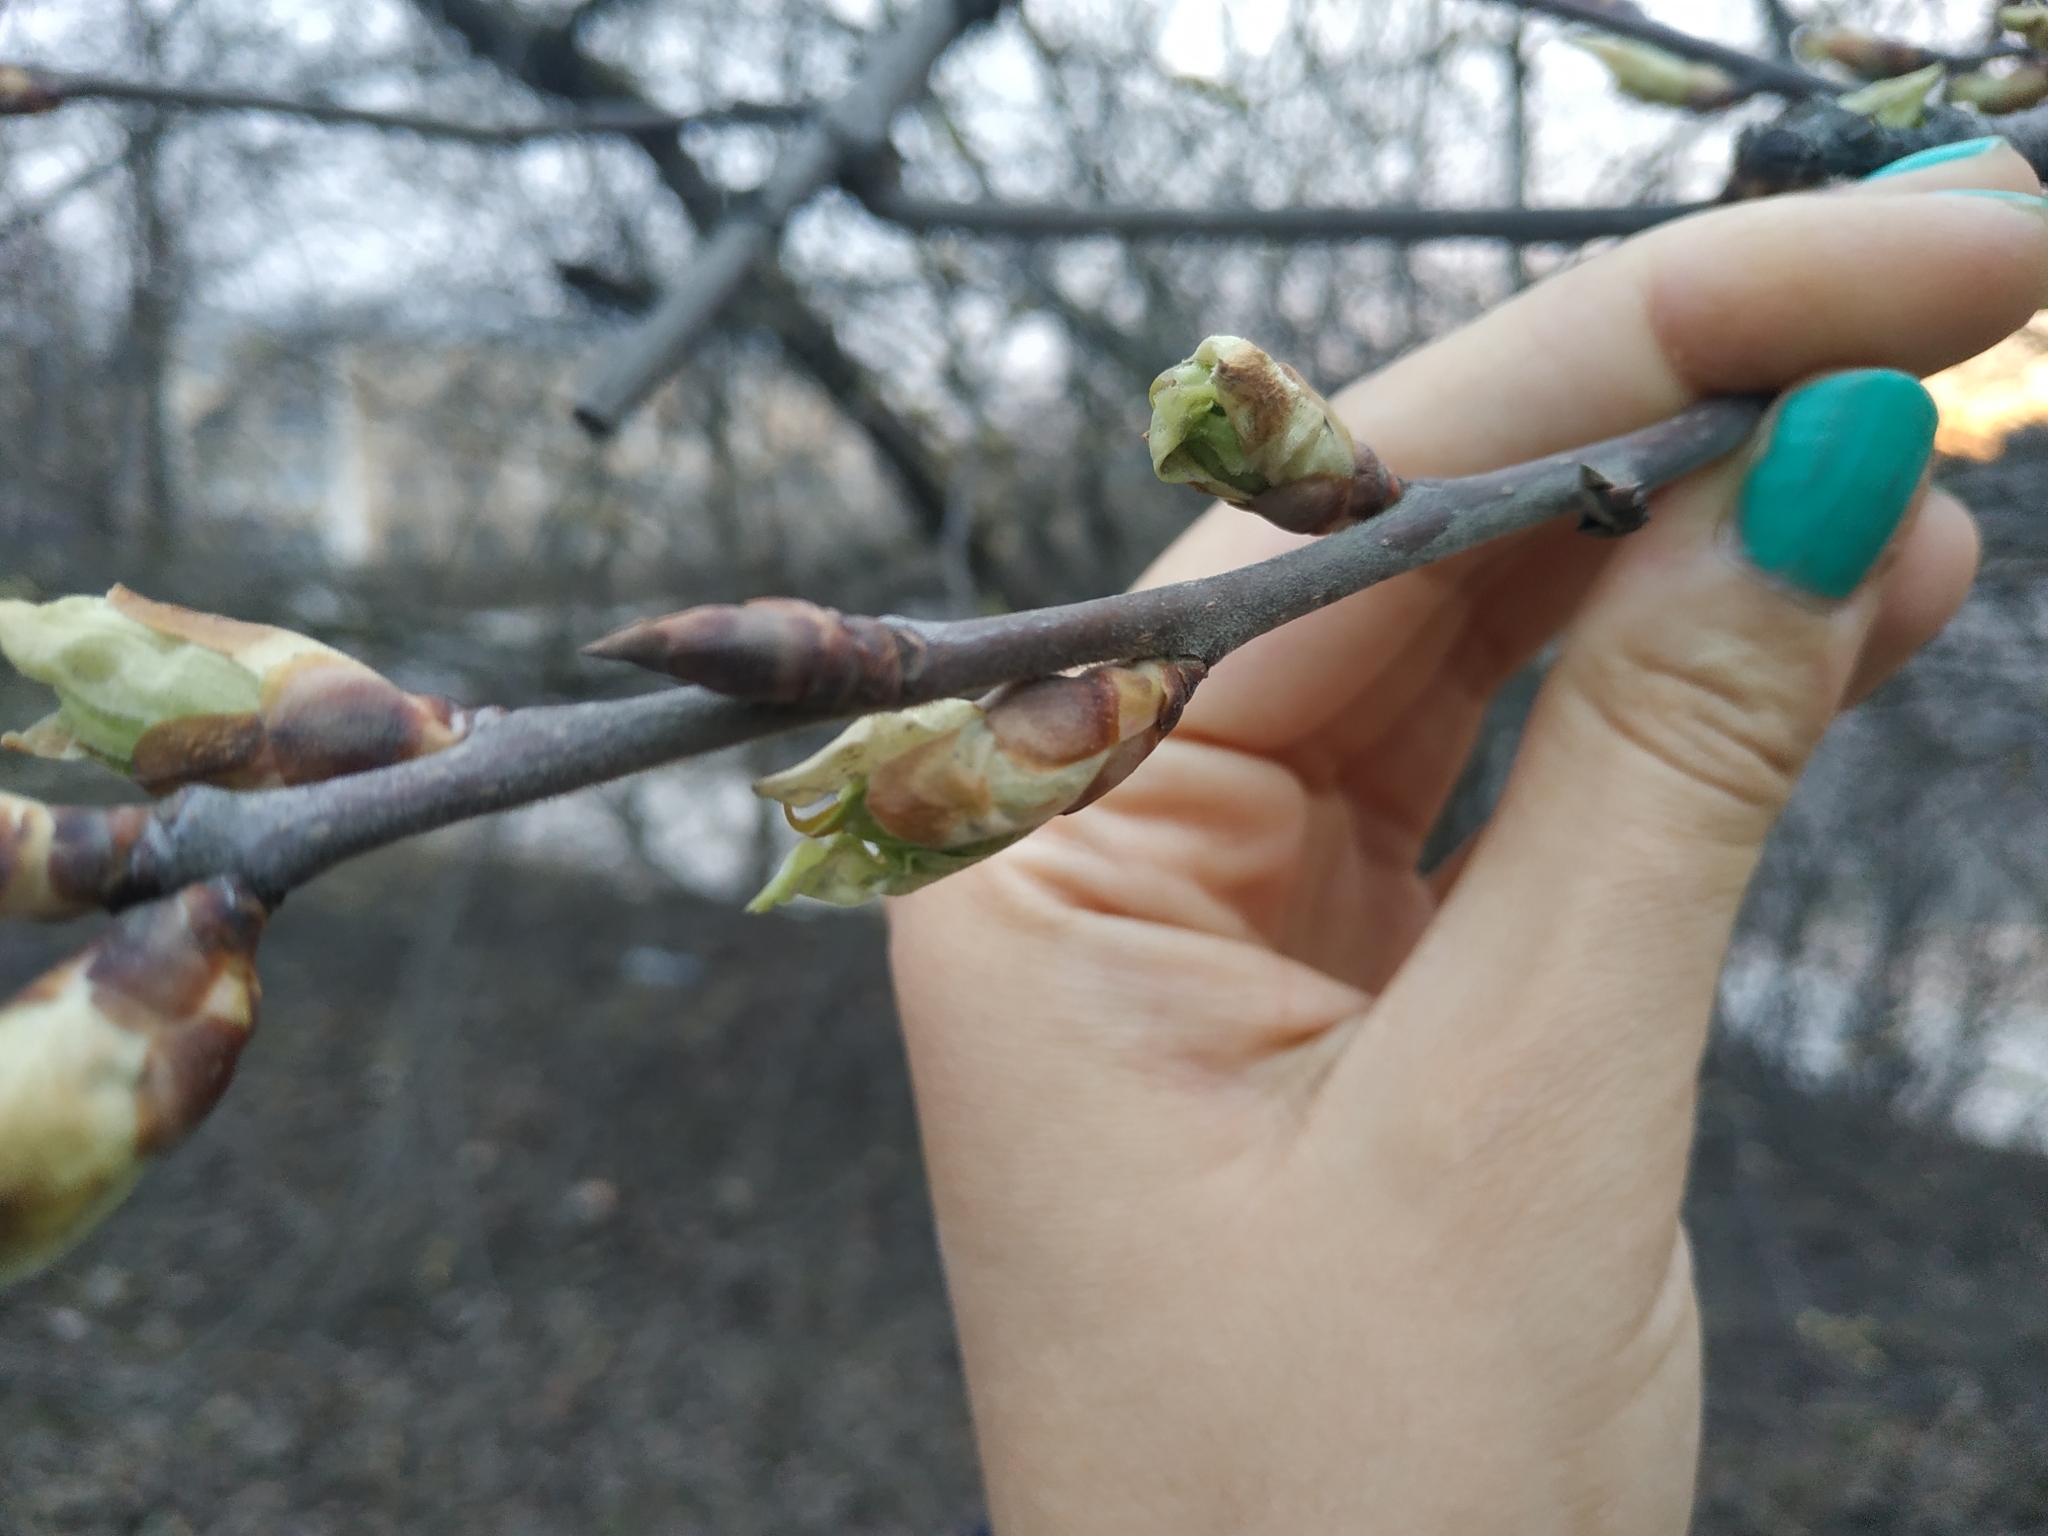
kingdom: Plantae
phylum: Tracheophyta
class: Magnoliopsida
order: Rosales
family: Rosaceae
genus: Prunus
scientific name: Prunus padus
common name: Bird cherry
